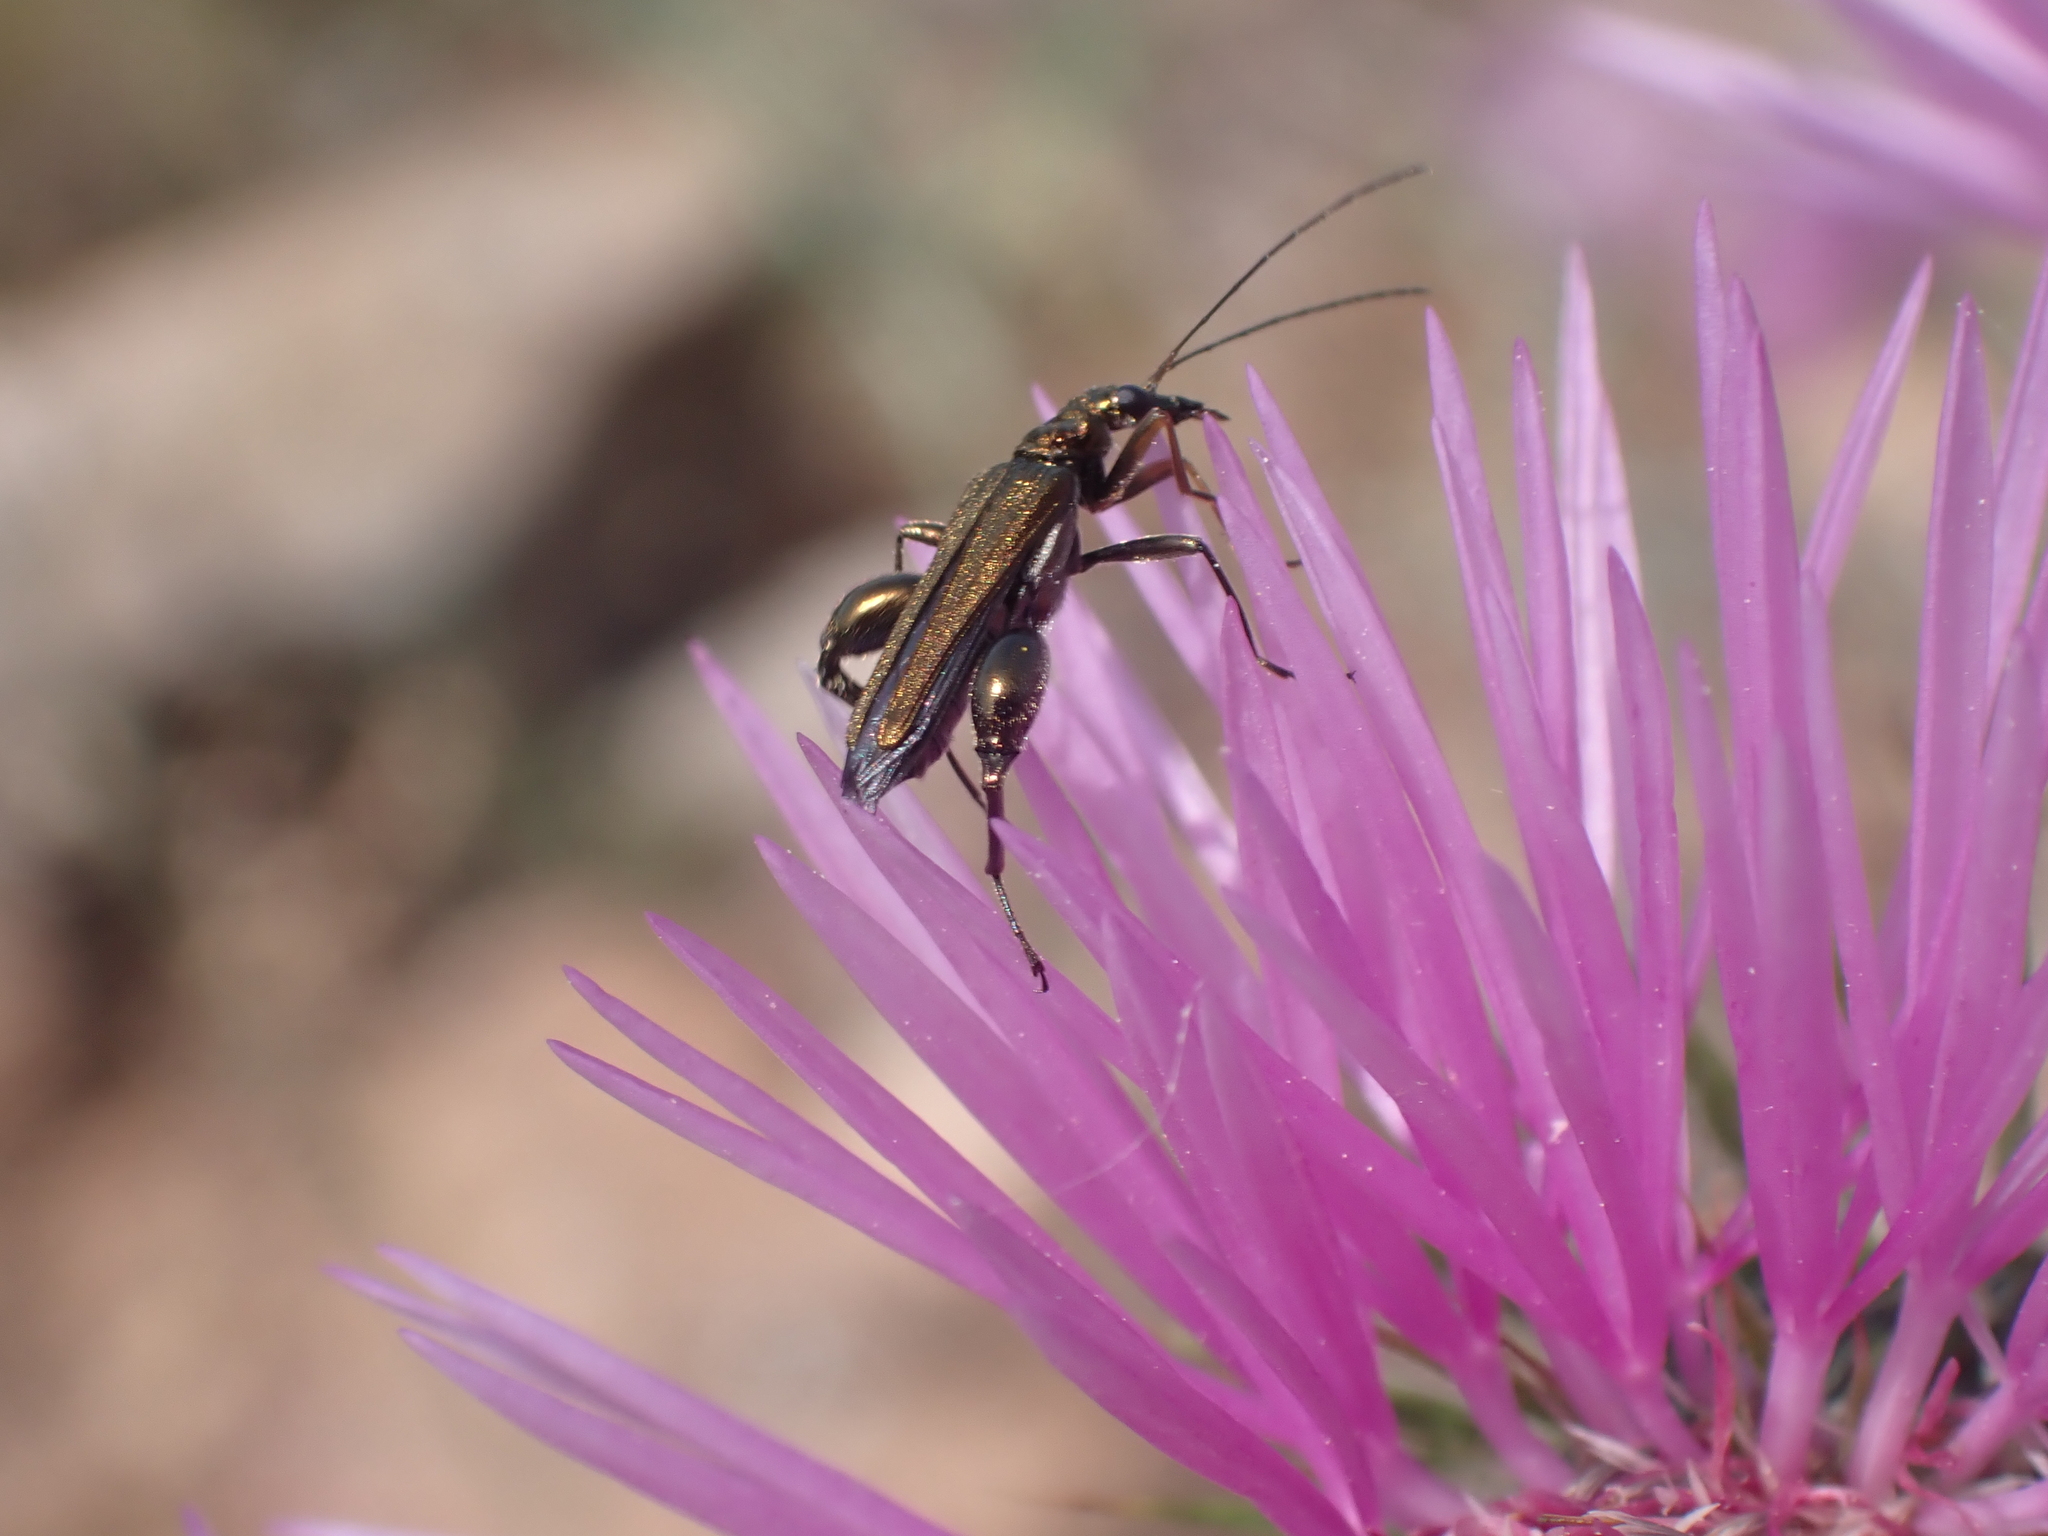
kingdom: Animalia
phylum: Arthropoda
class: Insecta
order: Coleoptera
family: Oedemeridae
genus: Oedemera
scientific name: Oedemera flavipes
